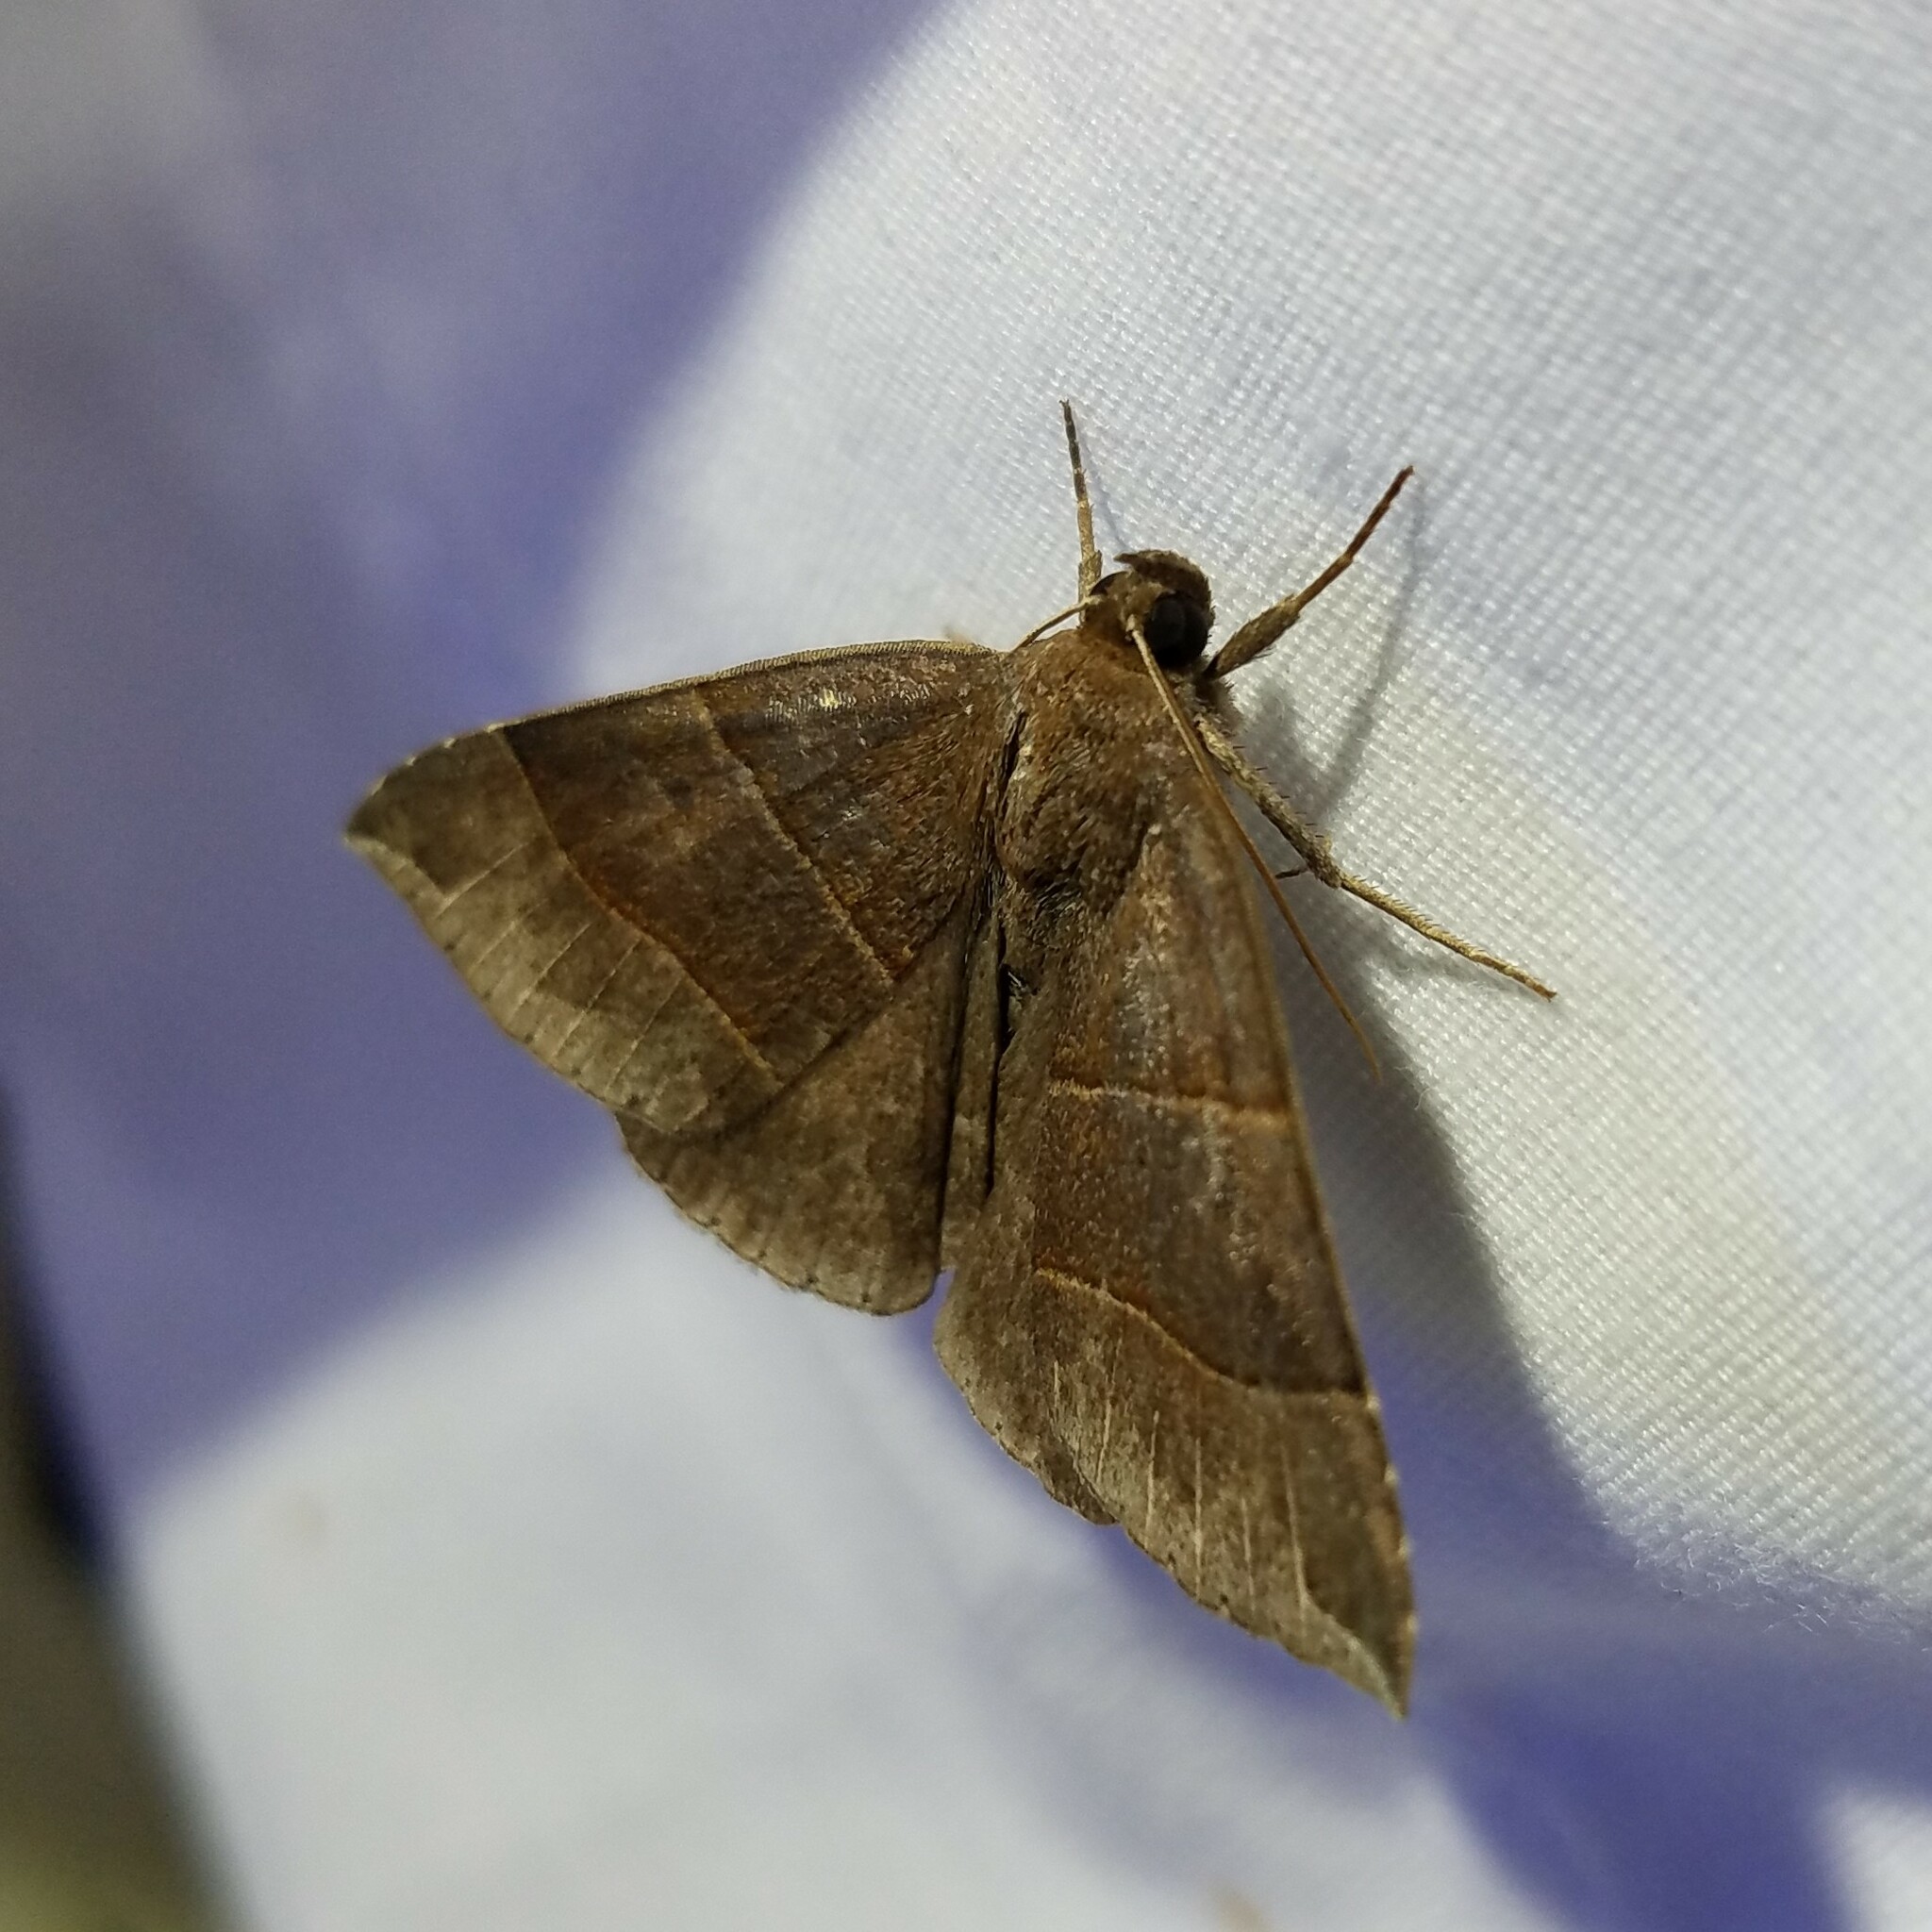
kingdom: Animalia
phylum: Arthropoda
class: Insecta
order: Lepidoptera
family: Erebidae
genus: Parallelia
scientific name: Parallelia bistriaris
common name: Maple looper moth
